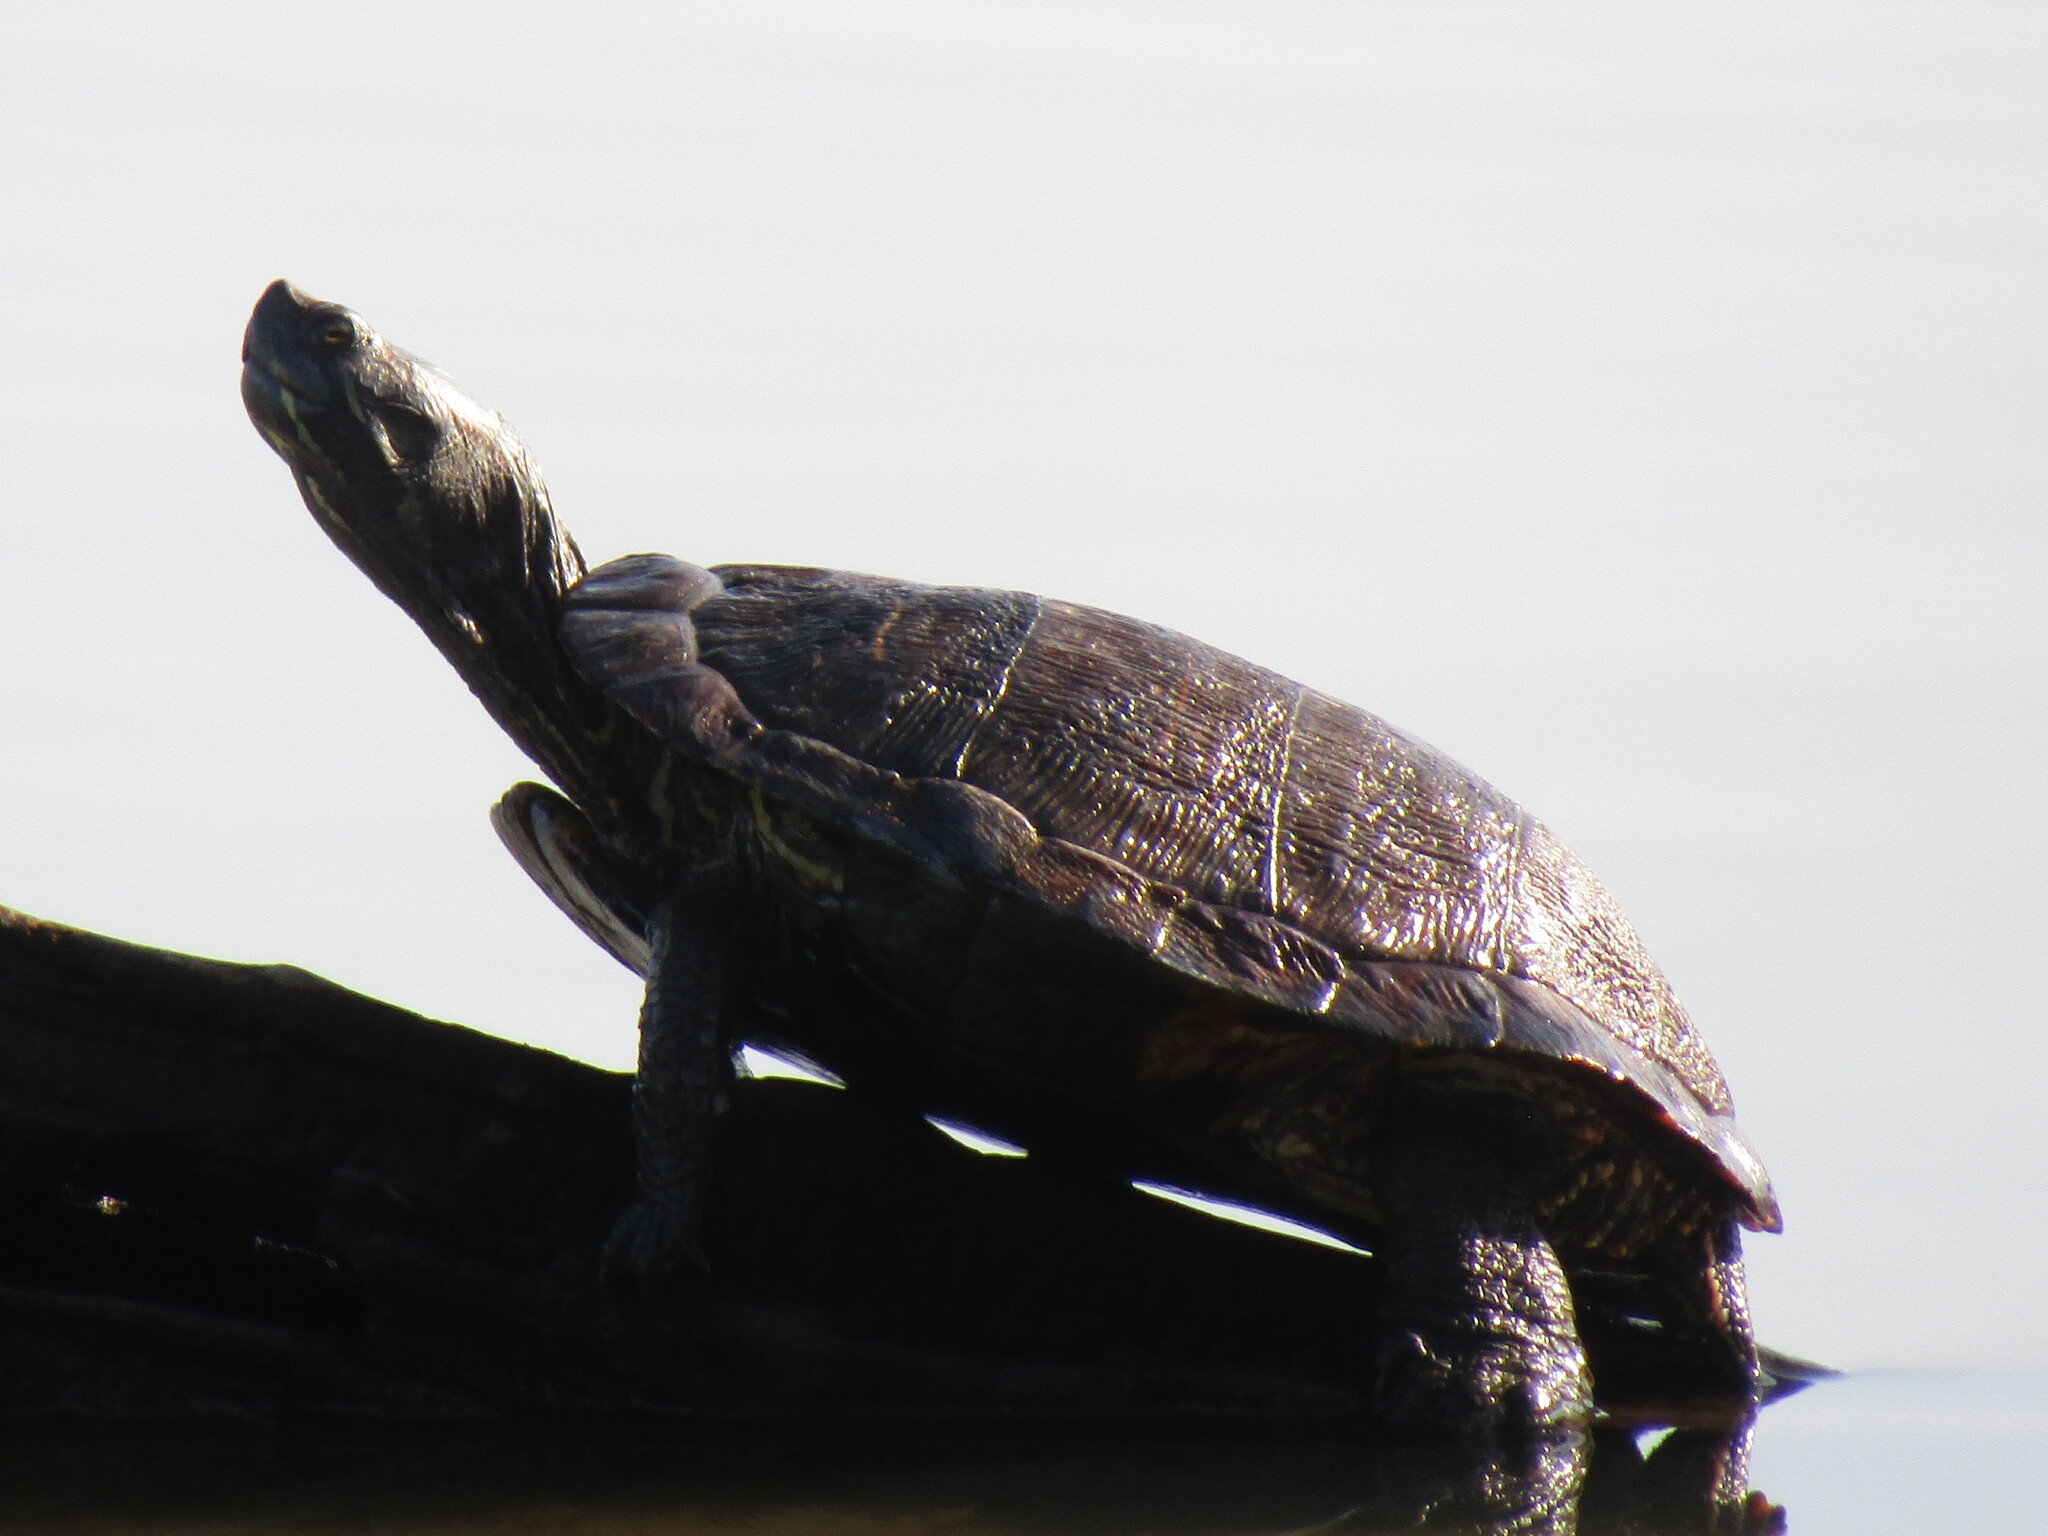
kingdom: Animalia
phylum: Chordata
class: Testudines
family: Emydidae
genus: Trachemys
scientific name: Trachemys scripta
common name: Slider
